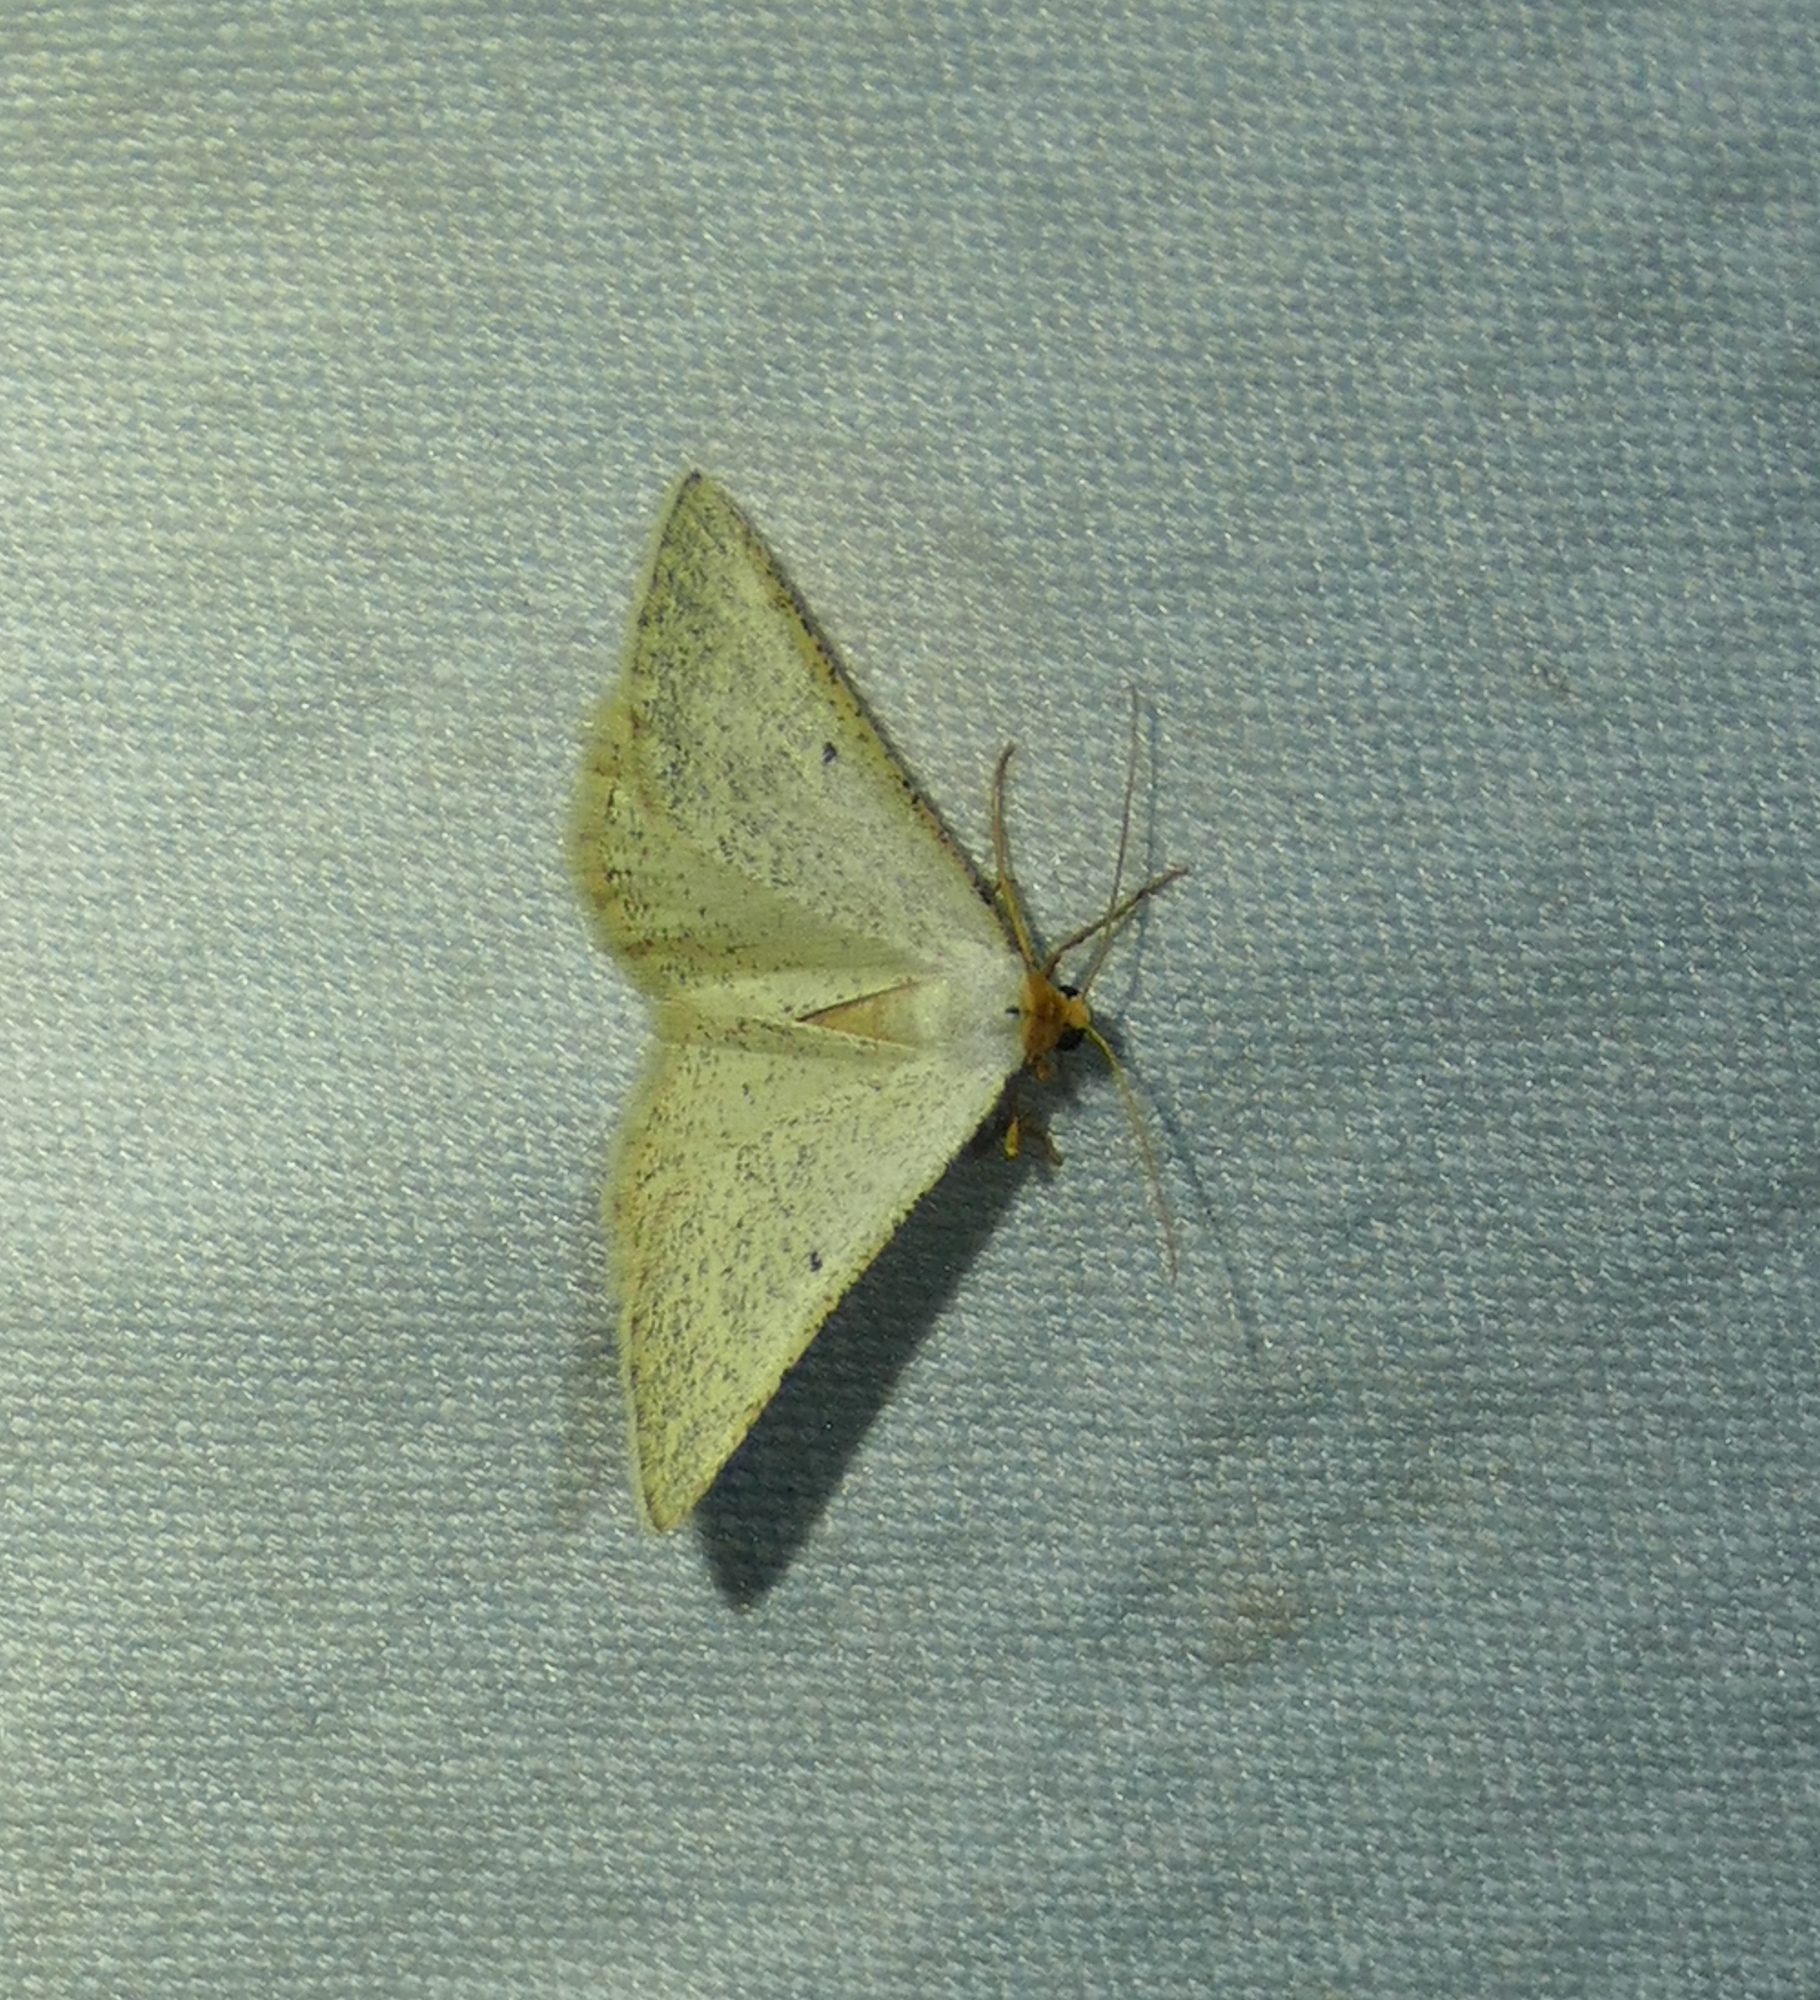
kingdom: Animalia
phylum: Arthropoda
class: Insecta
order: Lepidoptera
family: Geometridae
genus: Macaria
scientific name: Macaria mendicata
